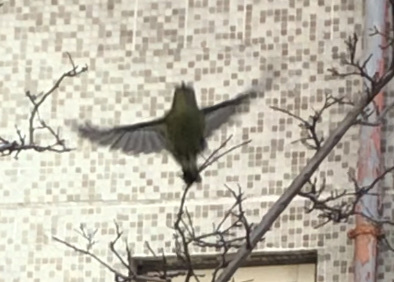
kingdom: Animalia
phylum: Chordata
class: Aves
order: Passeriformes
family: Nectariniidae
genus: Aethopyga
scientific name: Aethopyga christinae
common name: Fork-tailed sunbird
